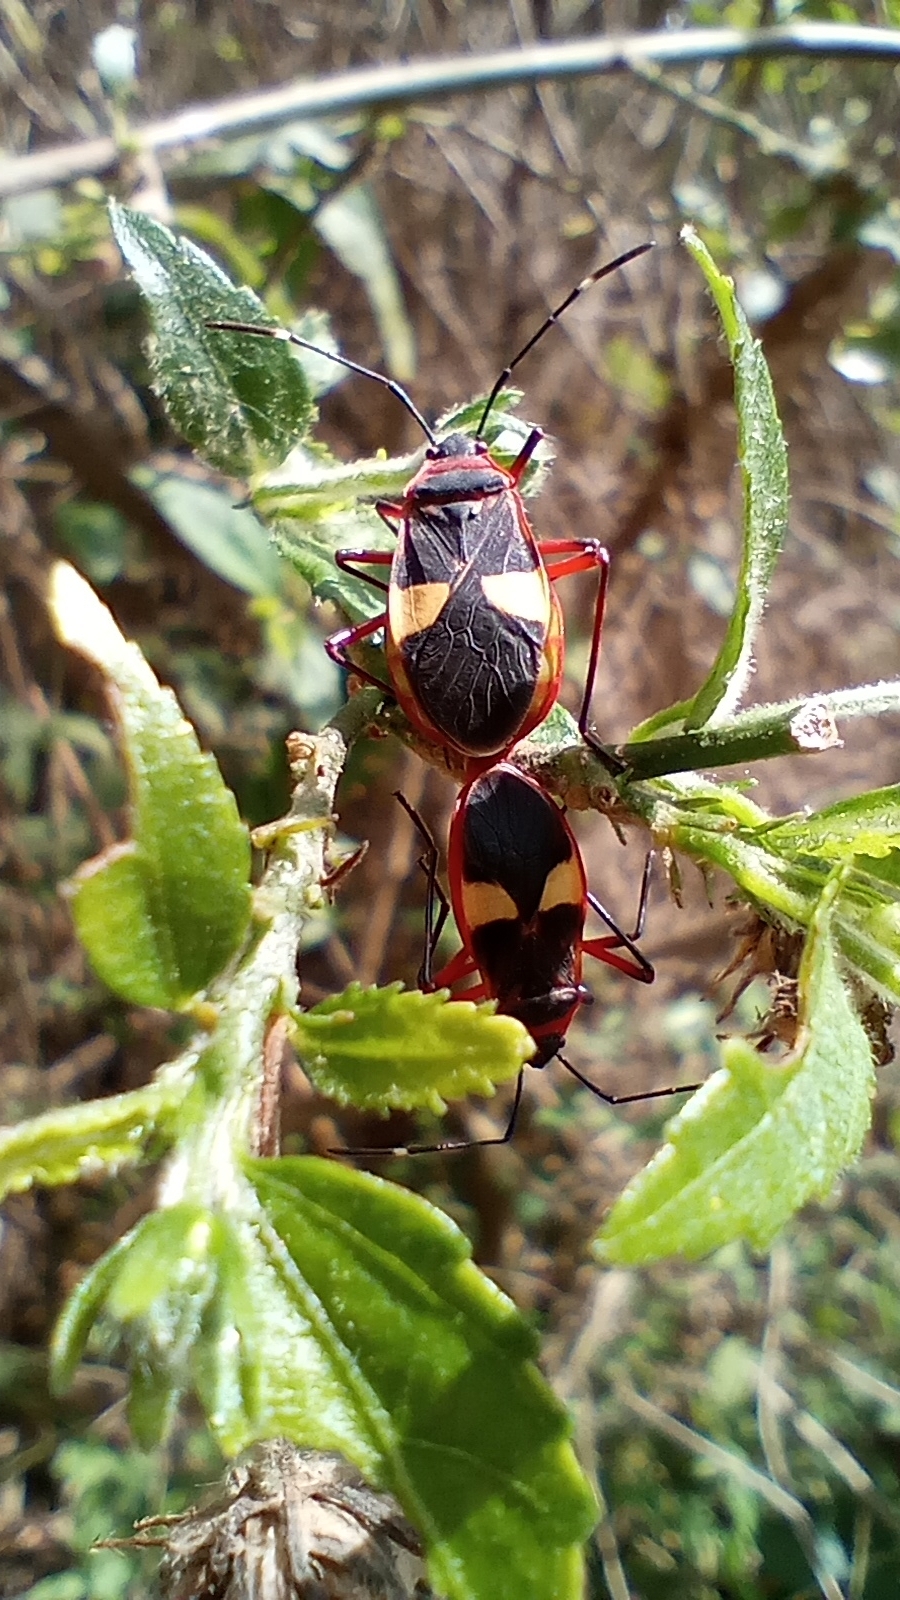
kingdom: Animalia
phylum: Arthropoda
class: Insecta
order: Hemiptera
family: Pyrrhocoridae
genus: Dysdercus
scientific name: Dysdercus albofasciatus
